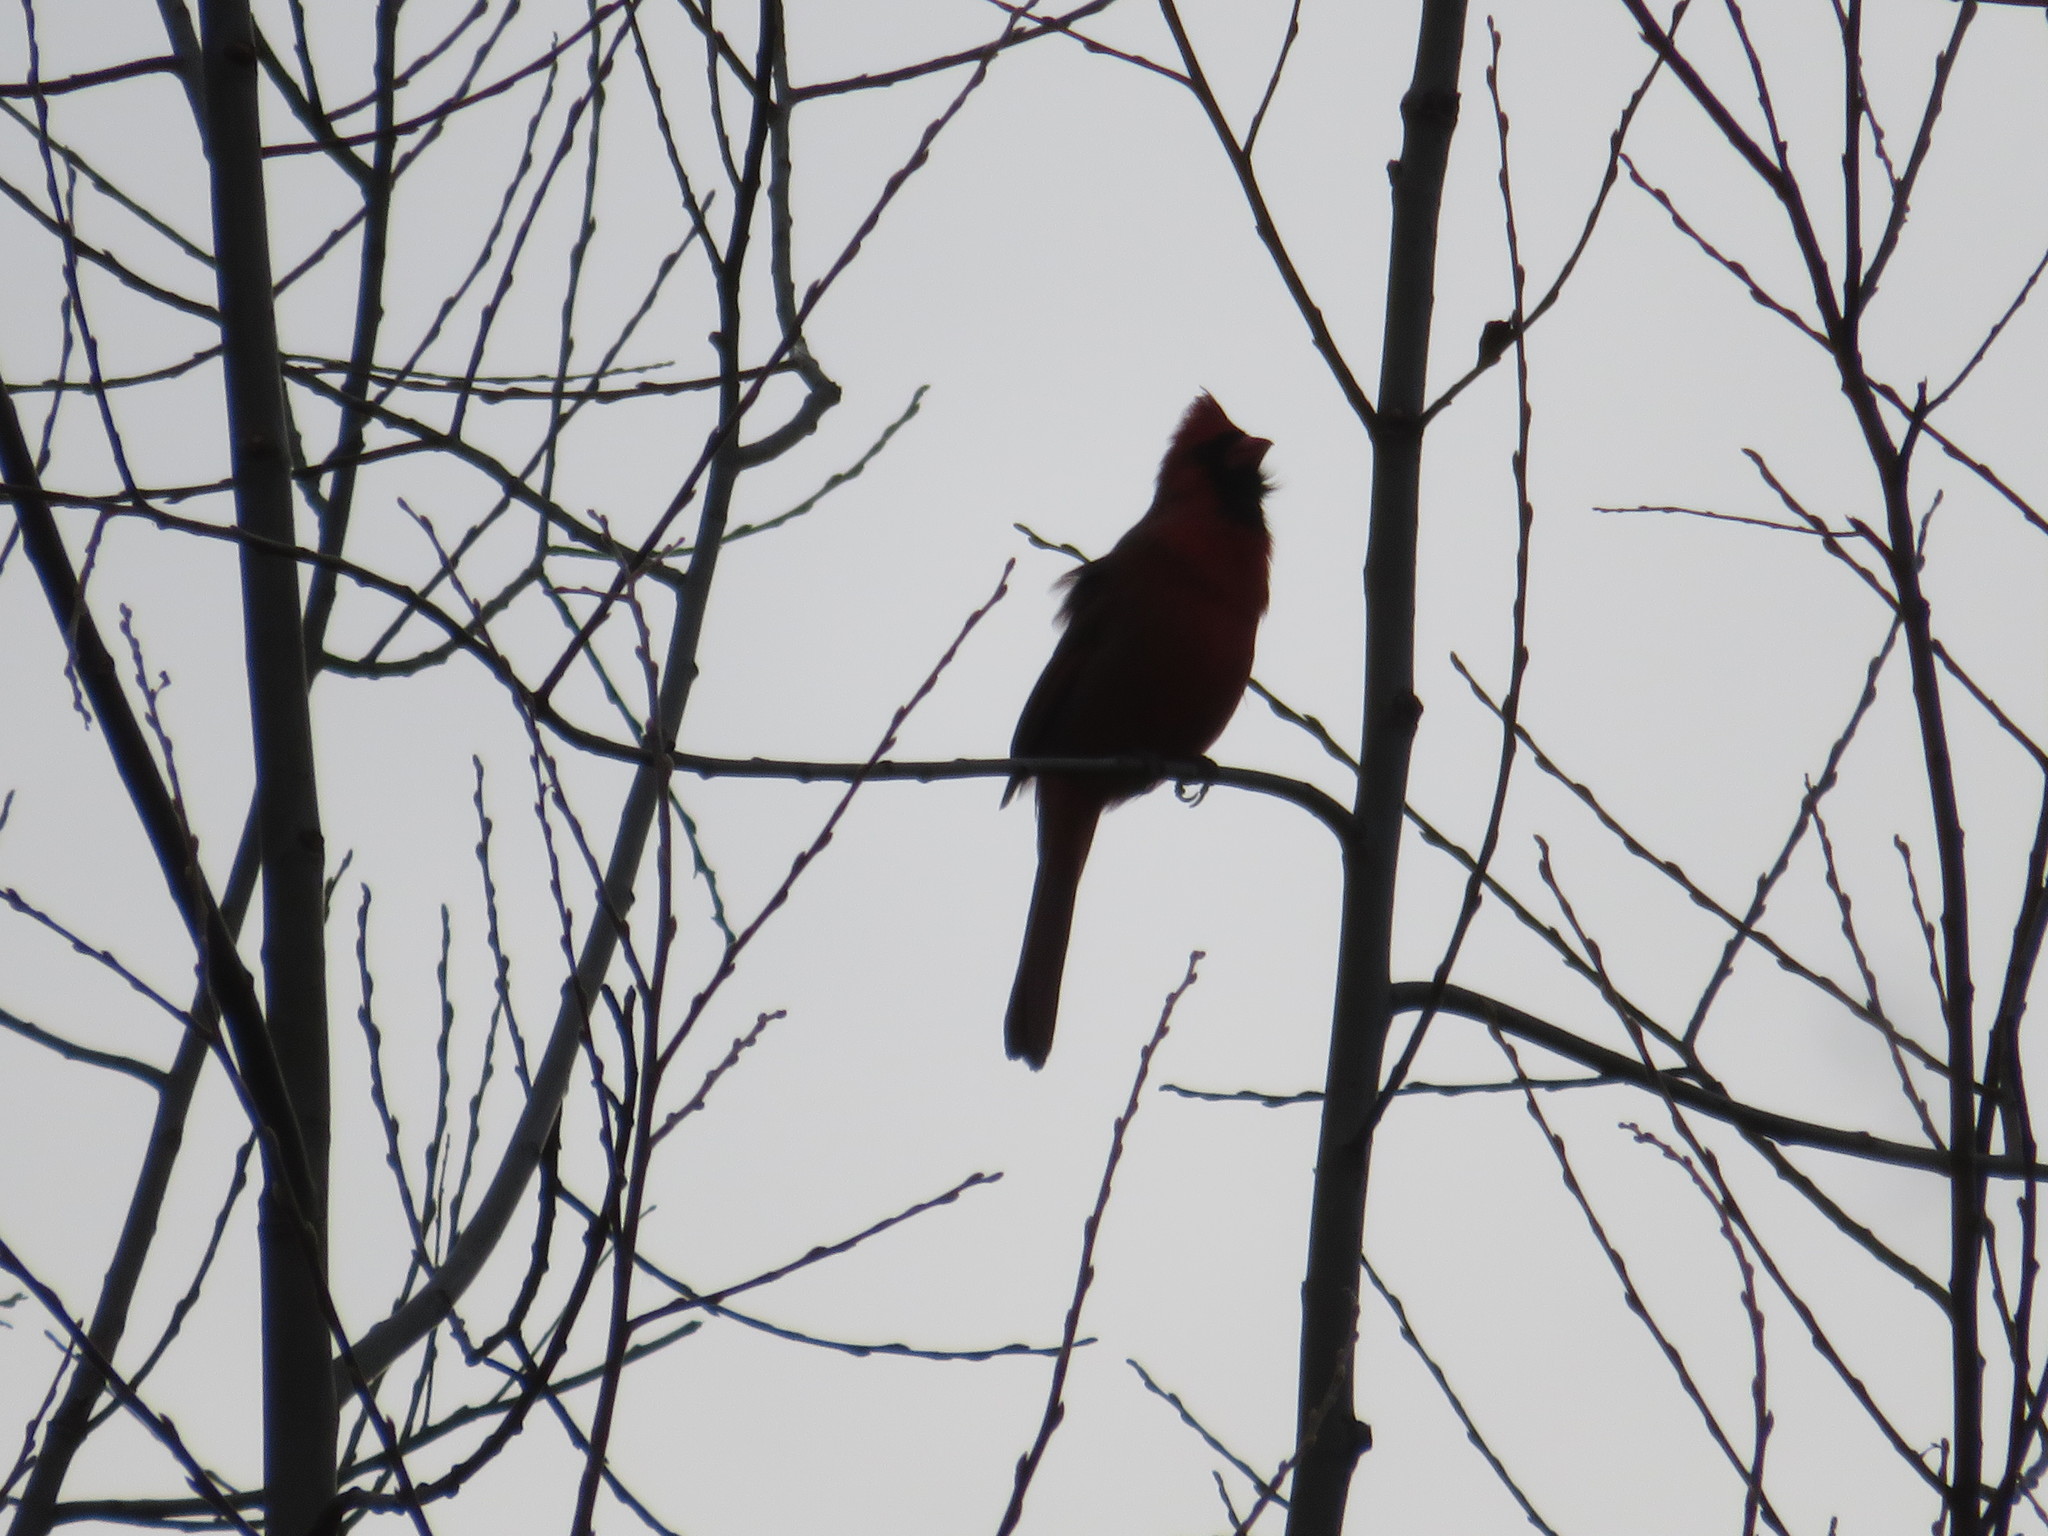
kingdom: Animalia
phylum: Chordata
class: Aves
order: Passeriformes
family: Cardinalidae
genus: Cardinalis
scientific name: Cardinalis cardinalis
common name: Northern cardinal
